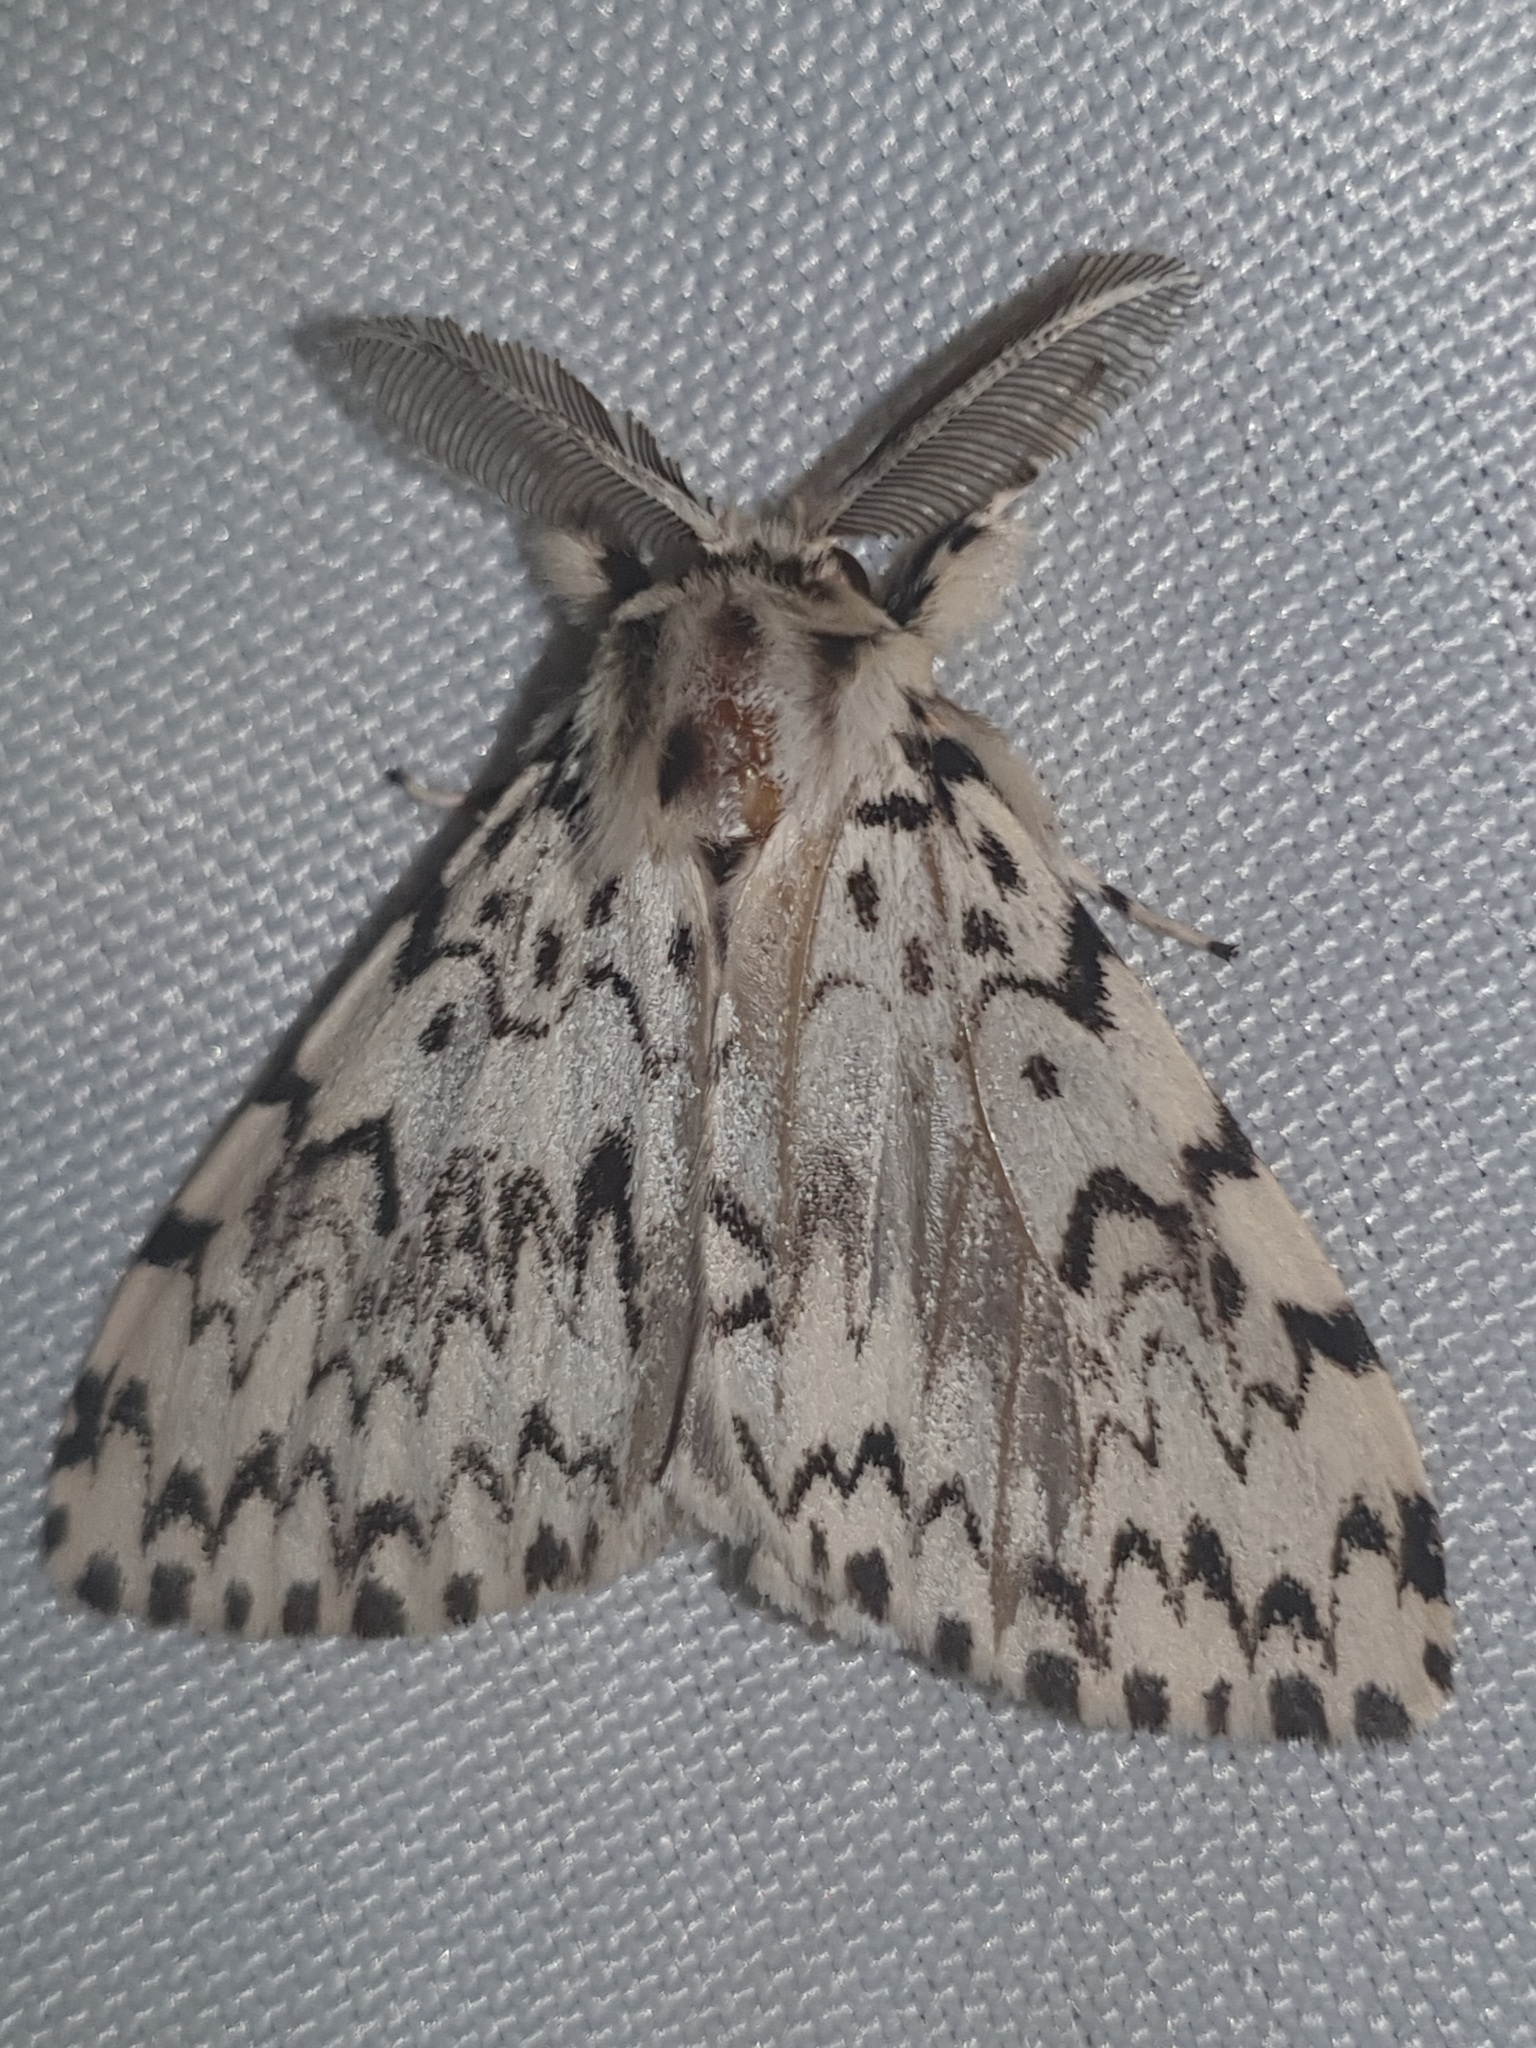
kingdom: Animalia
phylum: Arthropoda
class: Insecta
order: Lepidoptera
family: Erebidae
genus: Lymantria
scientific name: Lymantria monacha
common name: Black arches
